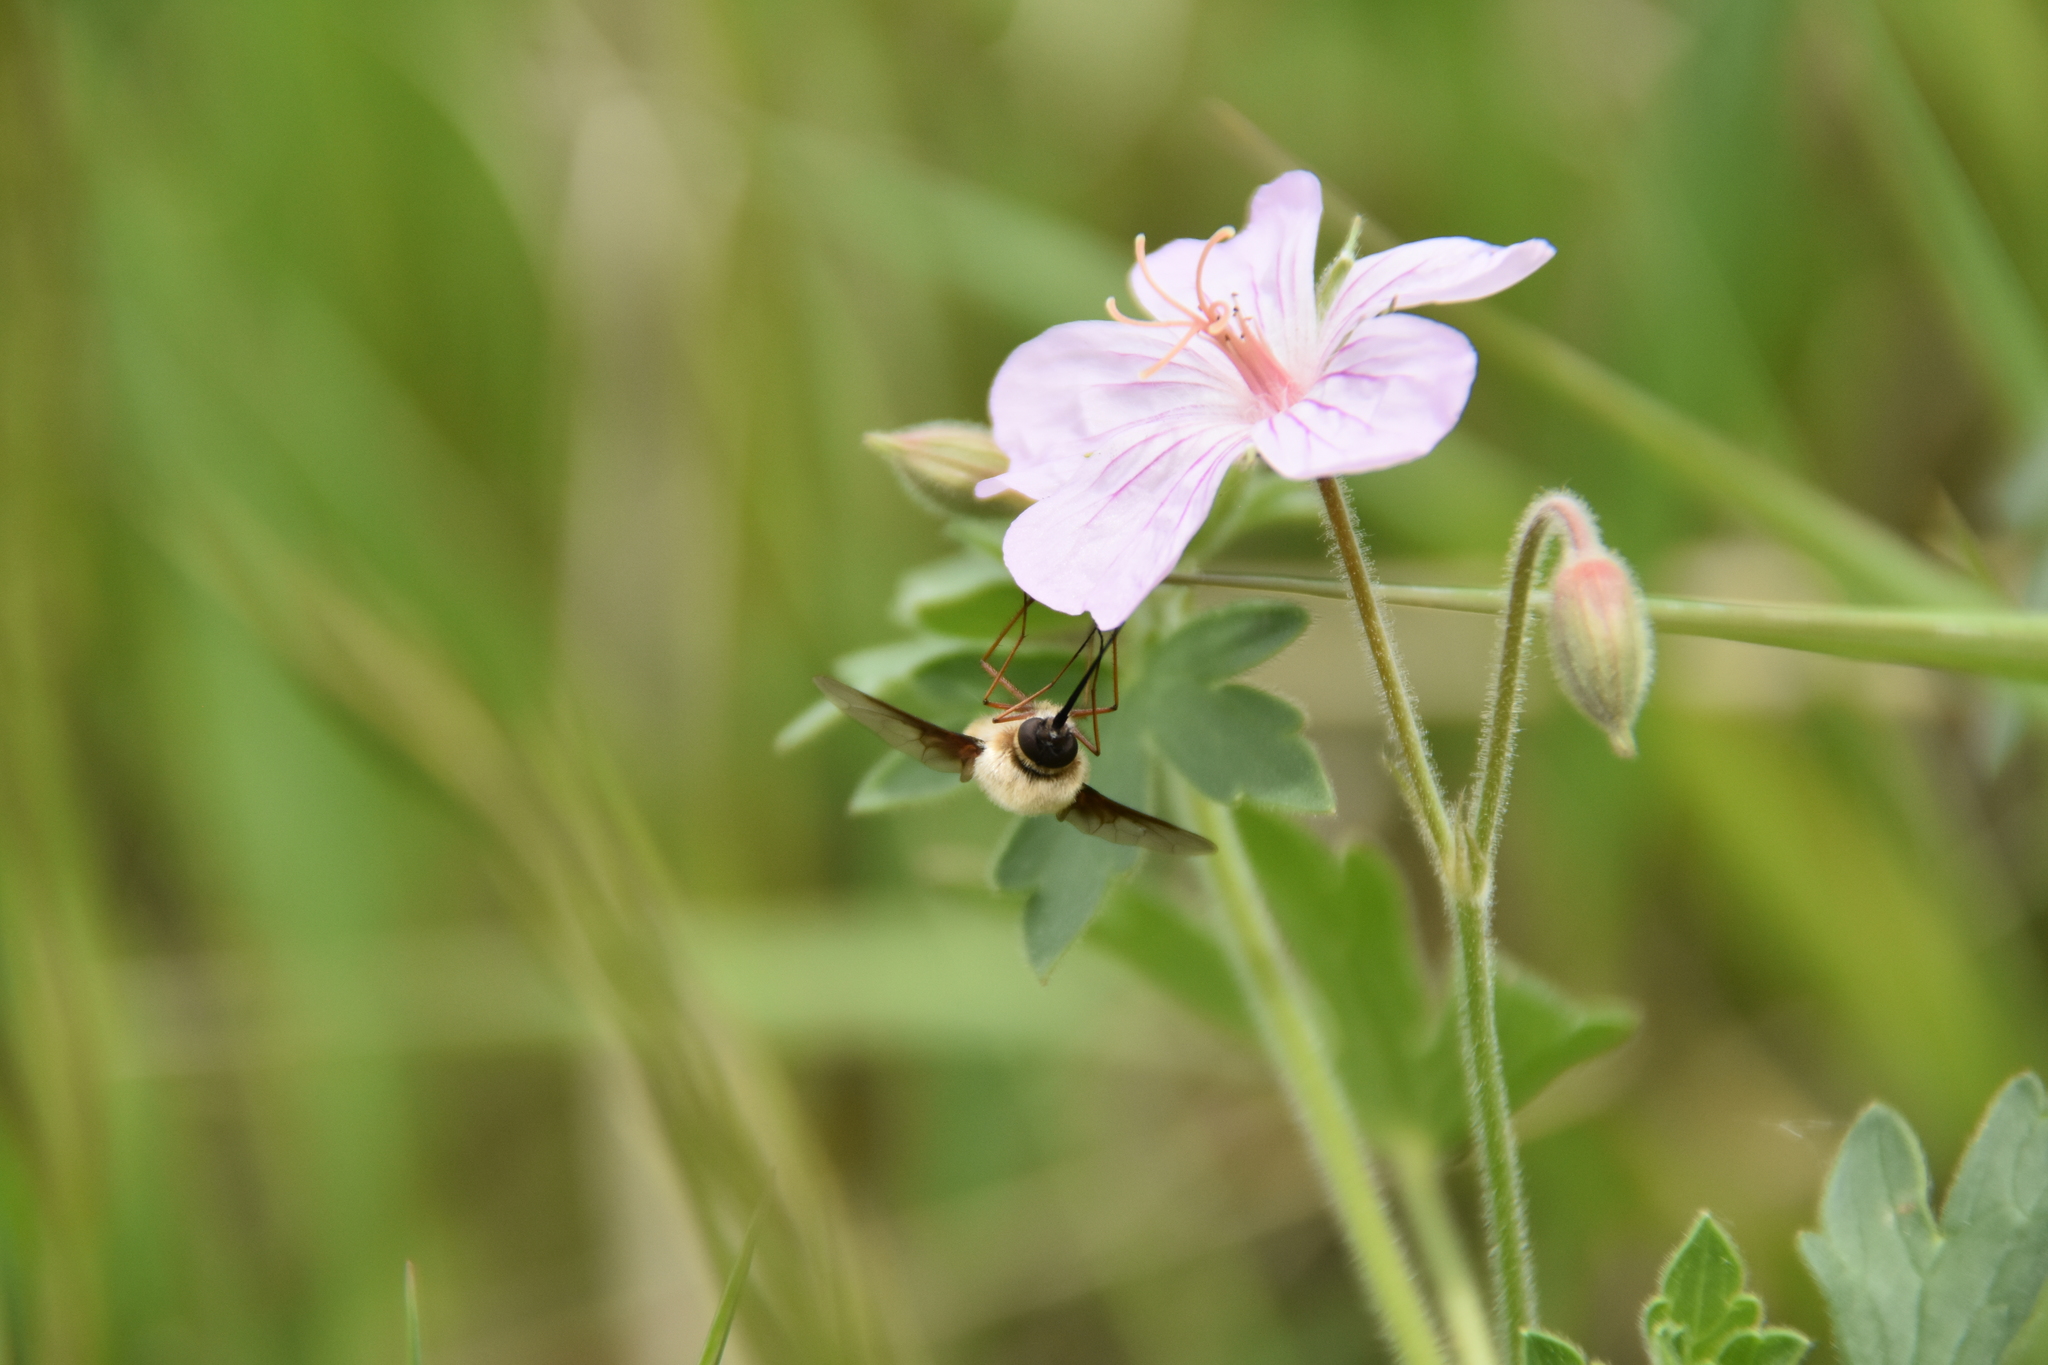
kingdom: Plantae
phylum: Tracheophyta
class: Magnoliopsida
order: Geraniales
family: Geraniaceae
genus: Geranium
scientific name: Geranium caespitosum
